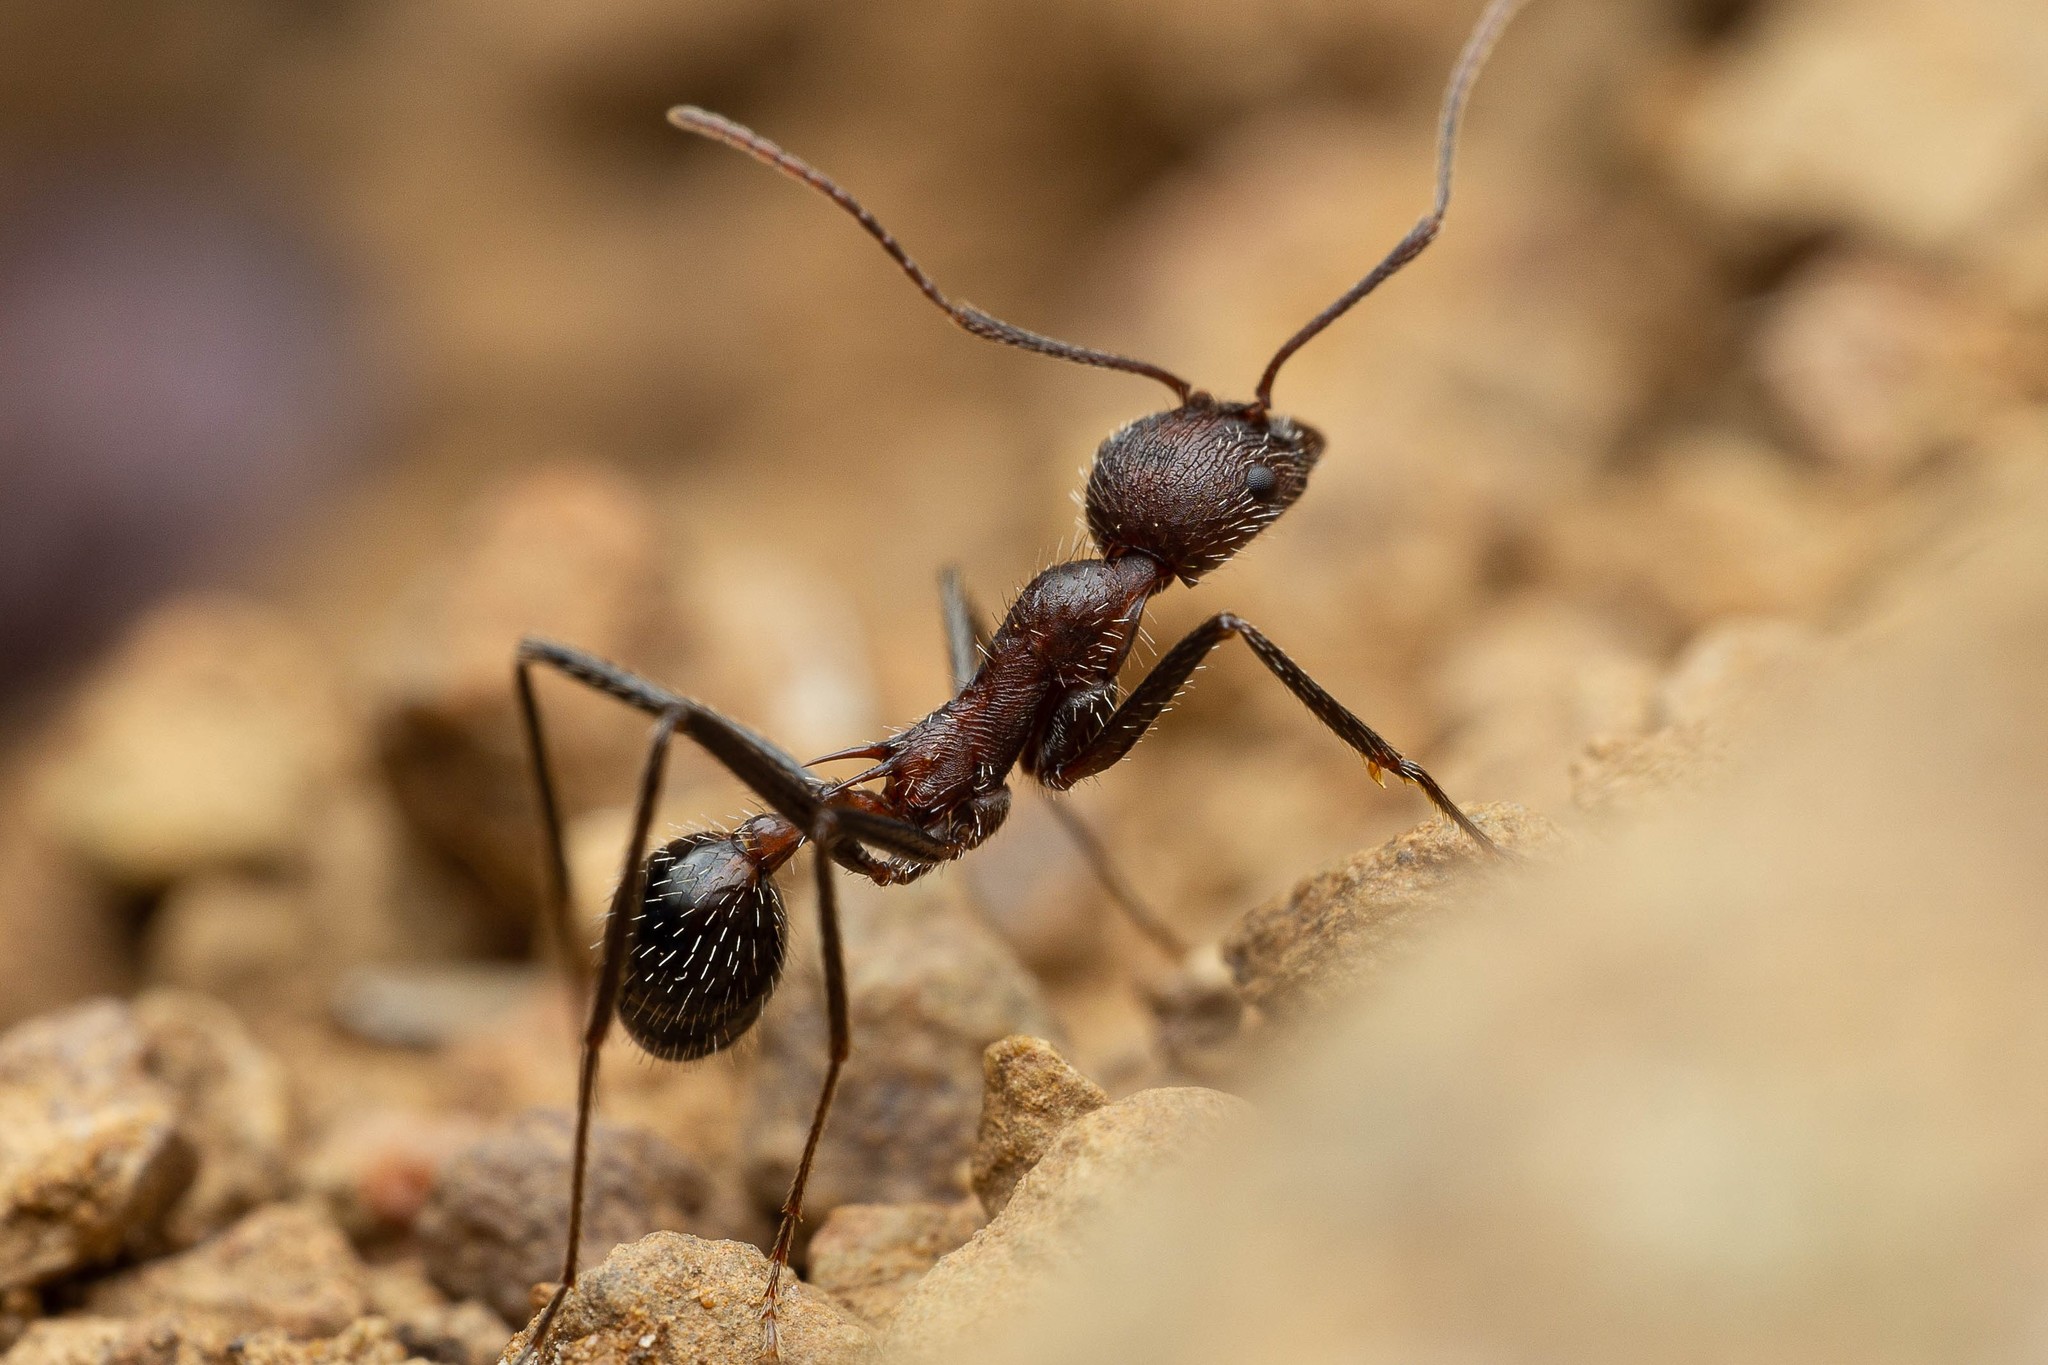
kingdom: Animalia
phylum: Arthropoda
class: Insecta
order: Hymenoptera
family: Formicidae
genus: Novomessor
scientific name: Novomessor albisetosa
